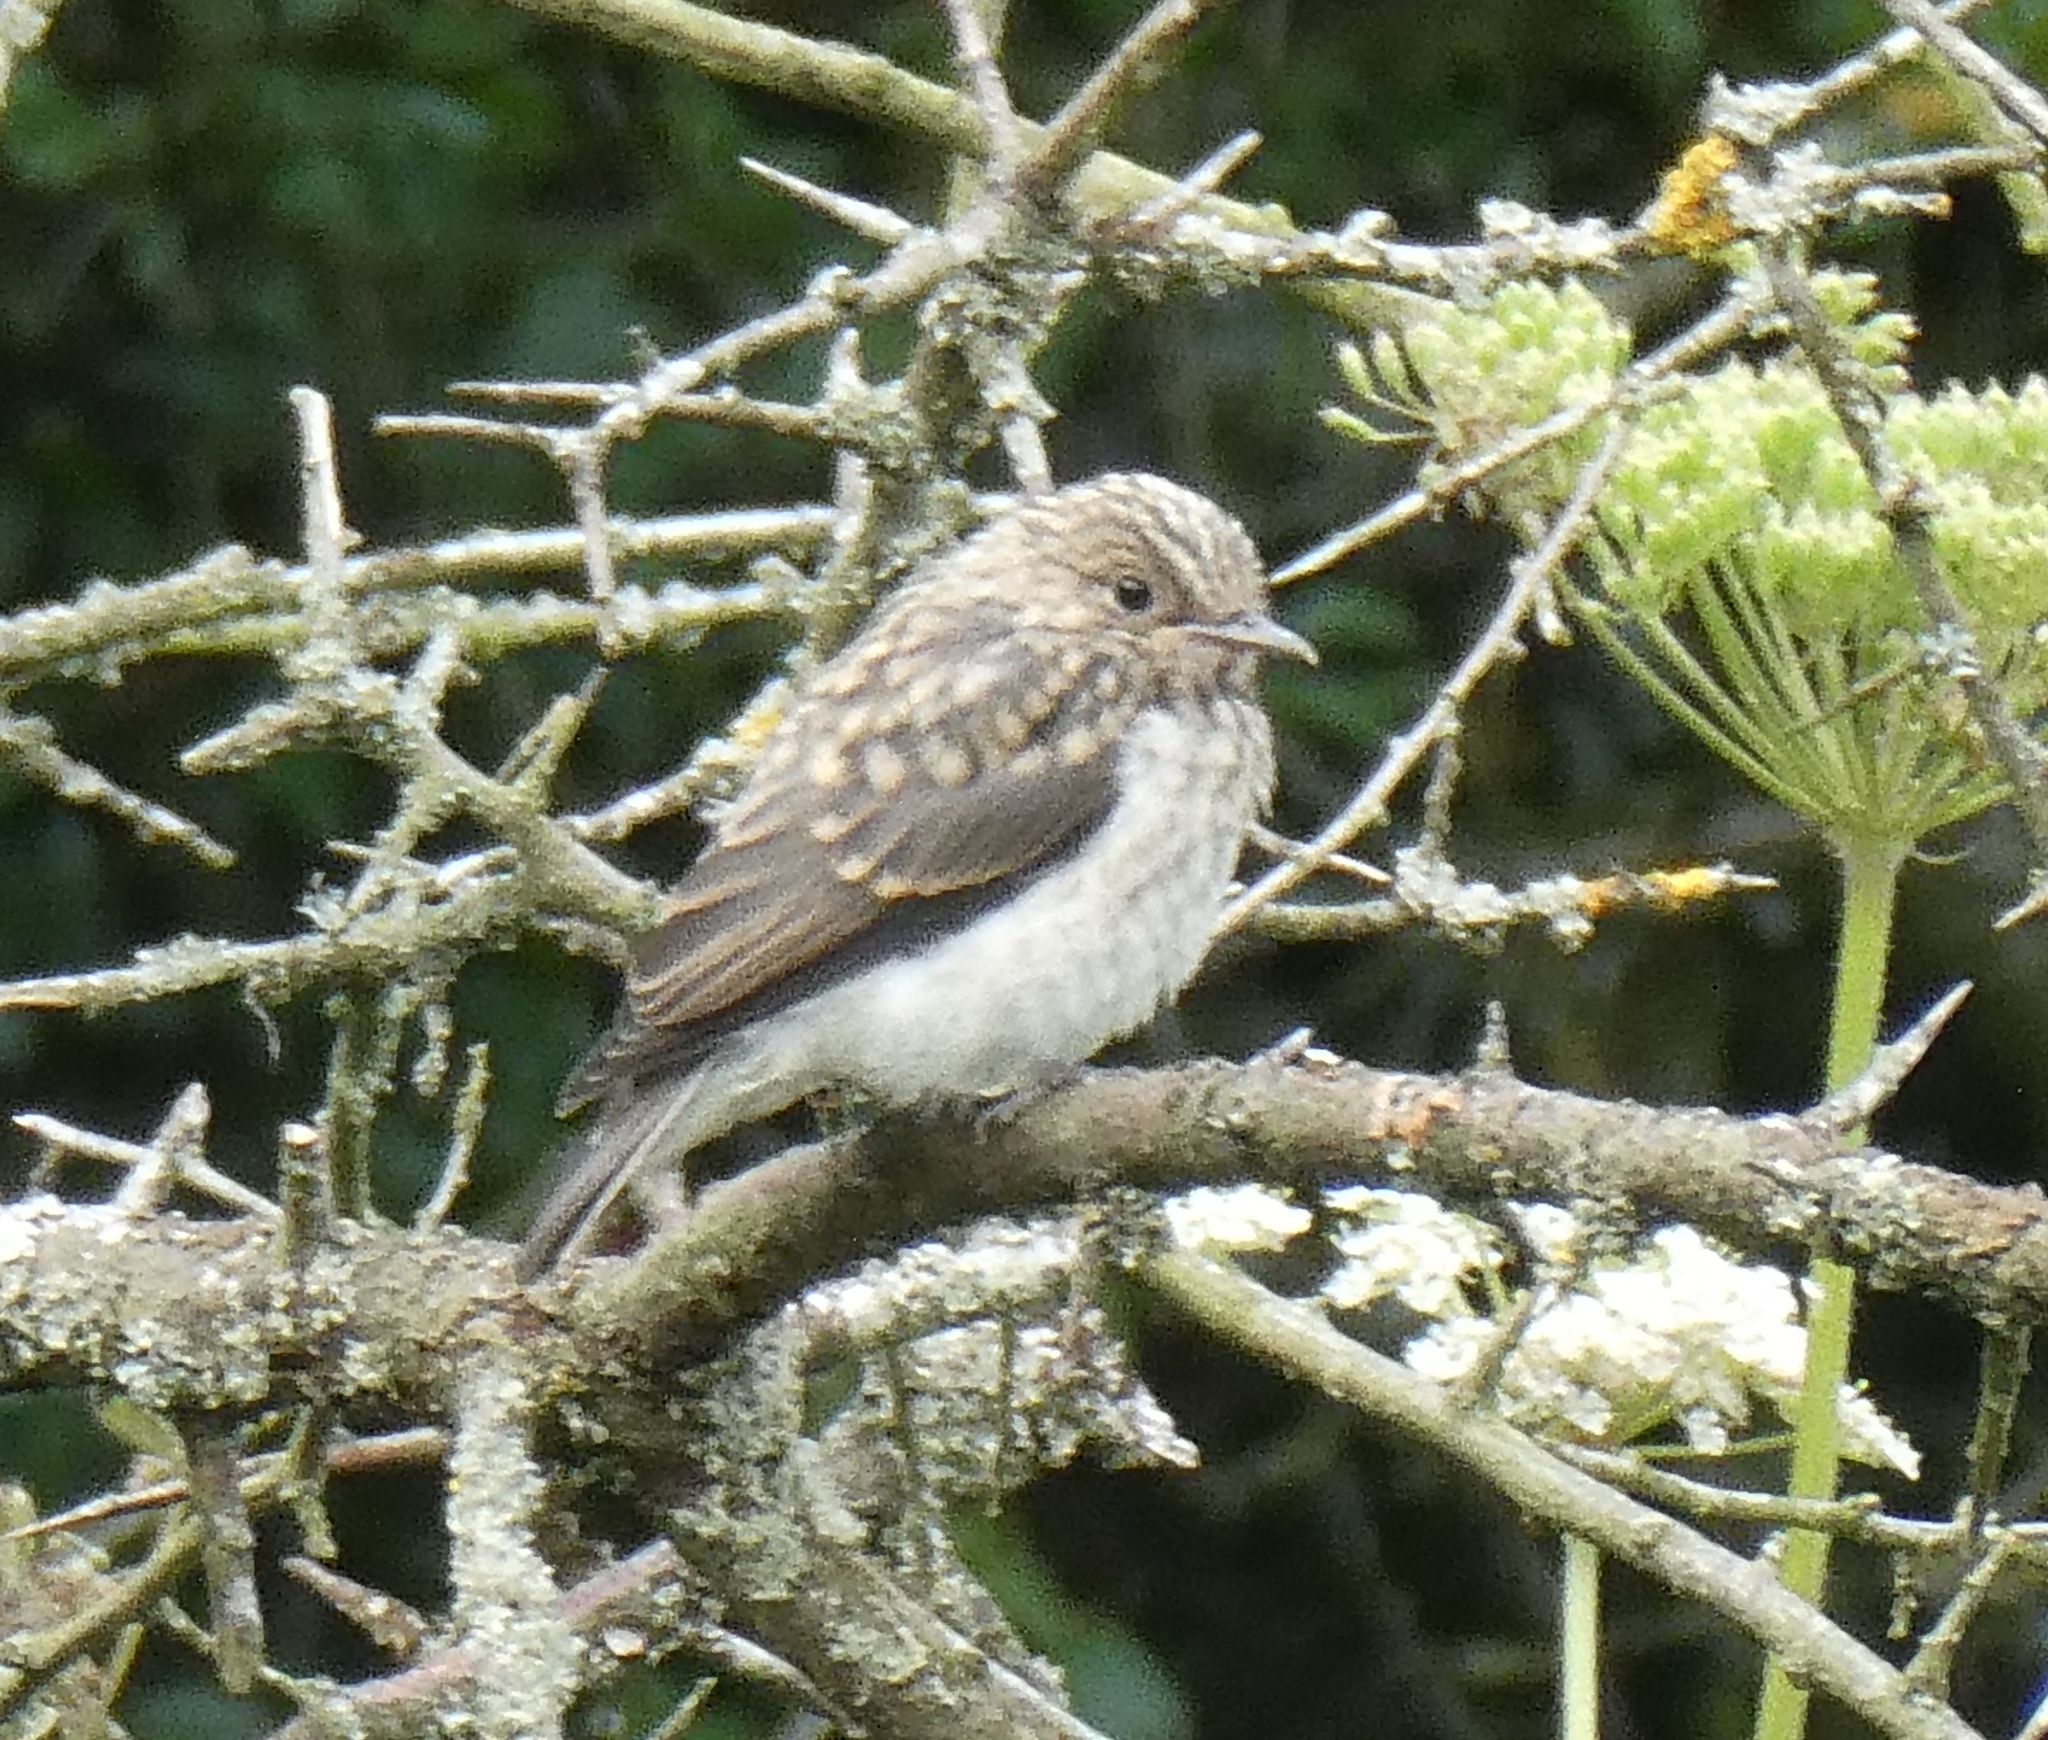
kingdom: Animalia
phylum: Chordata
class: Aves
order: Passeriformes
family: Muscicapidae
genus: Muscicapa
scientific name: Muscicapa striata
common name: Spotted flycatcher
